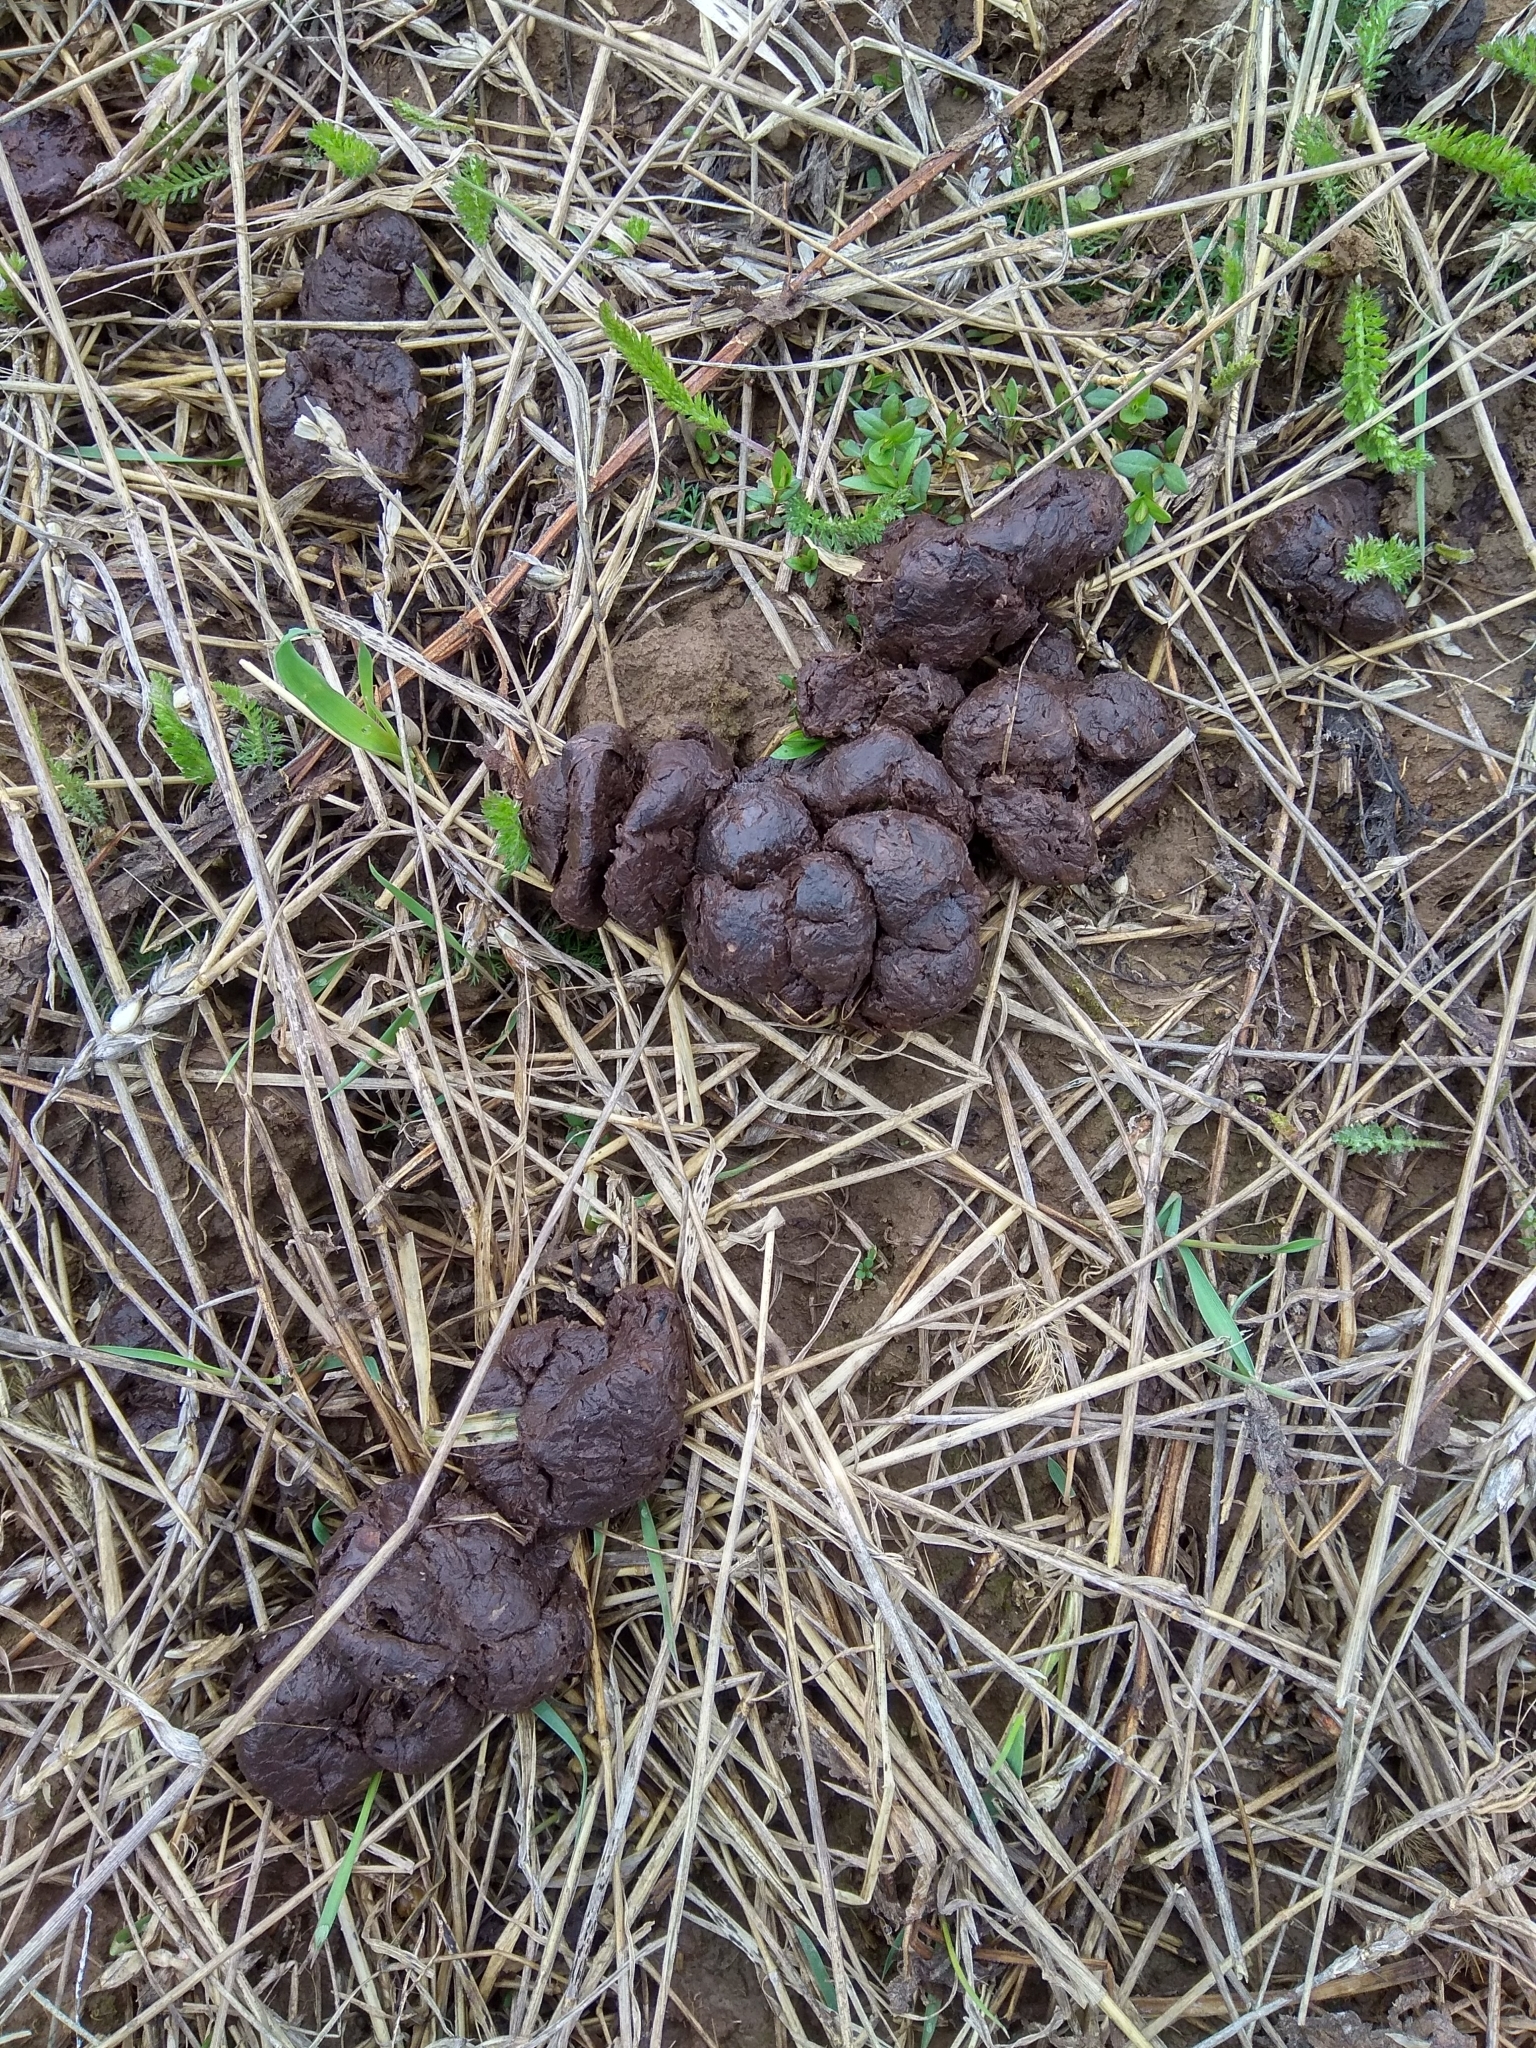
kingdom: Animalia
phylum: Chordata
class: Mammalia
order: Artiodactyla
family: Suidae
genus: Sus
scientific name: Sus scrofa
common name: Wild boar
